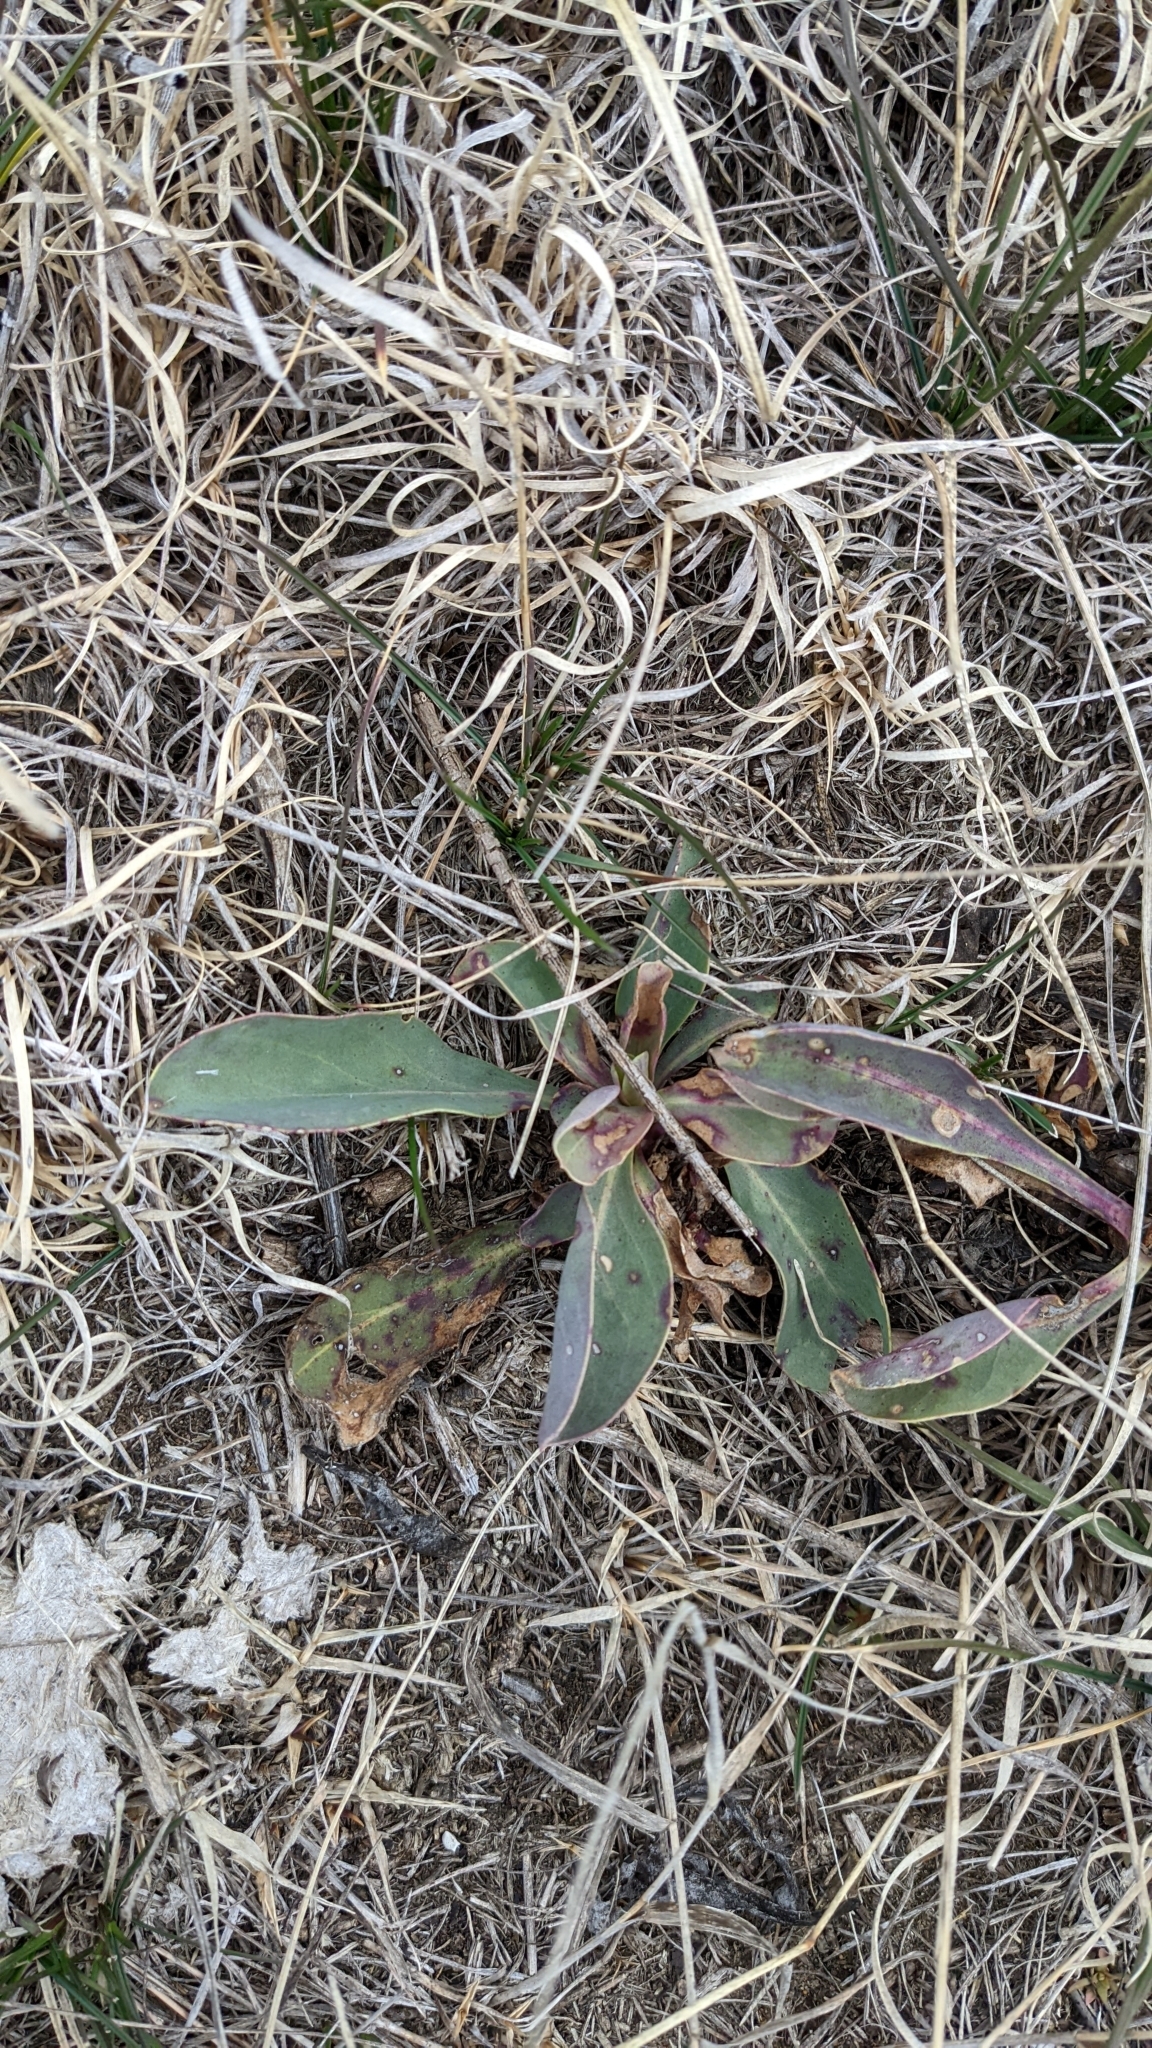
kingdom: Plantae
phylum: Tracheophyta
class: Magnoliopsida
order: Lamiales
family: Plantaginaceae
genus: Penstemon
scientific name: Penstemon
